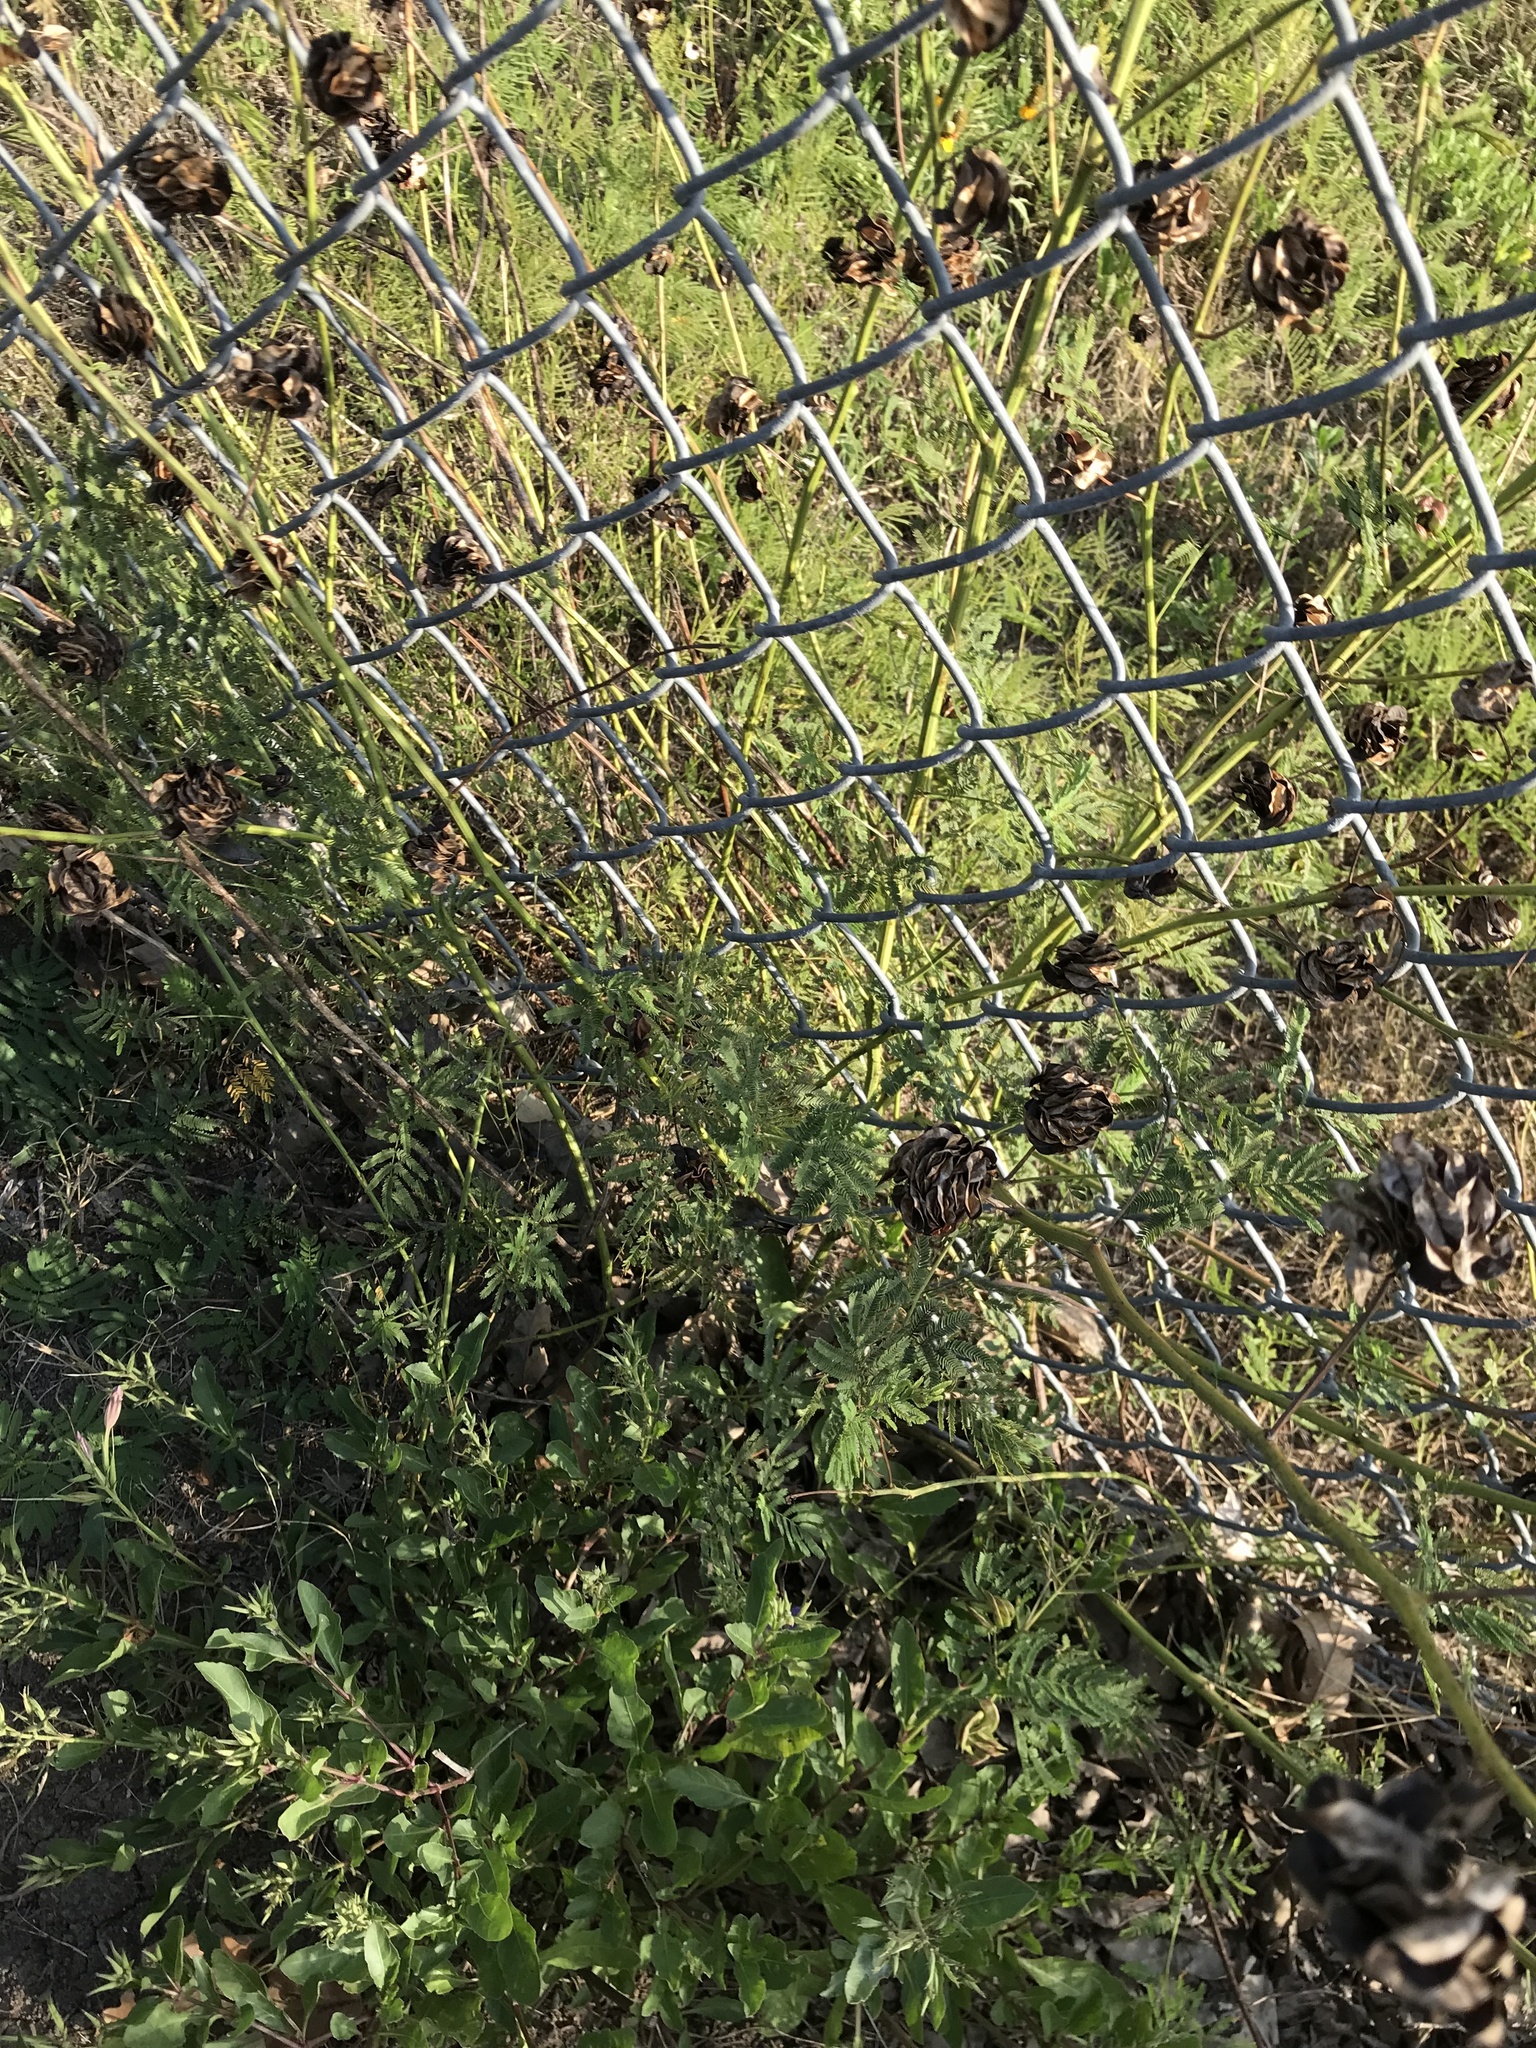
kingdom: Plantae
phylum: Tracheophyta
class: Magnoliopsida
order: Fabales
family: Fabaceae
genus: Desmanthus
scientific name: Desmanthus illinoensis
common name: Illinois bundle-flower
